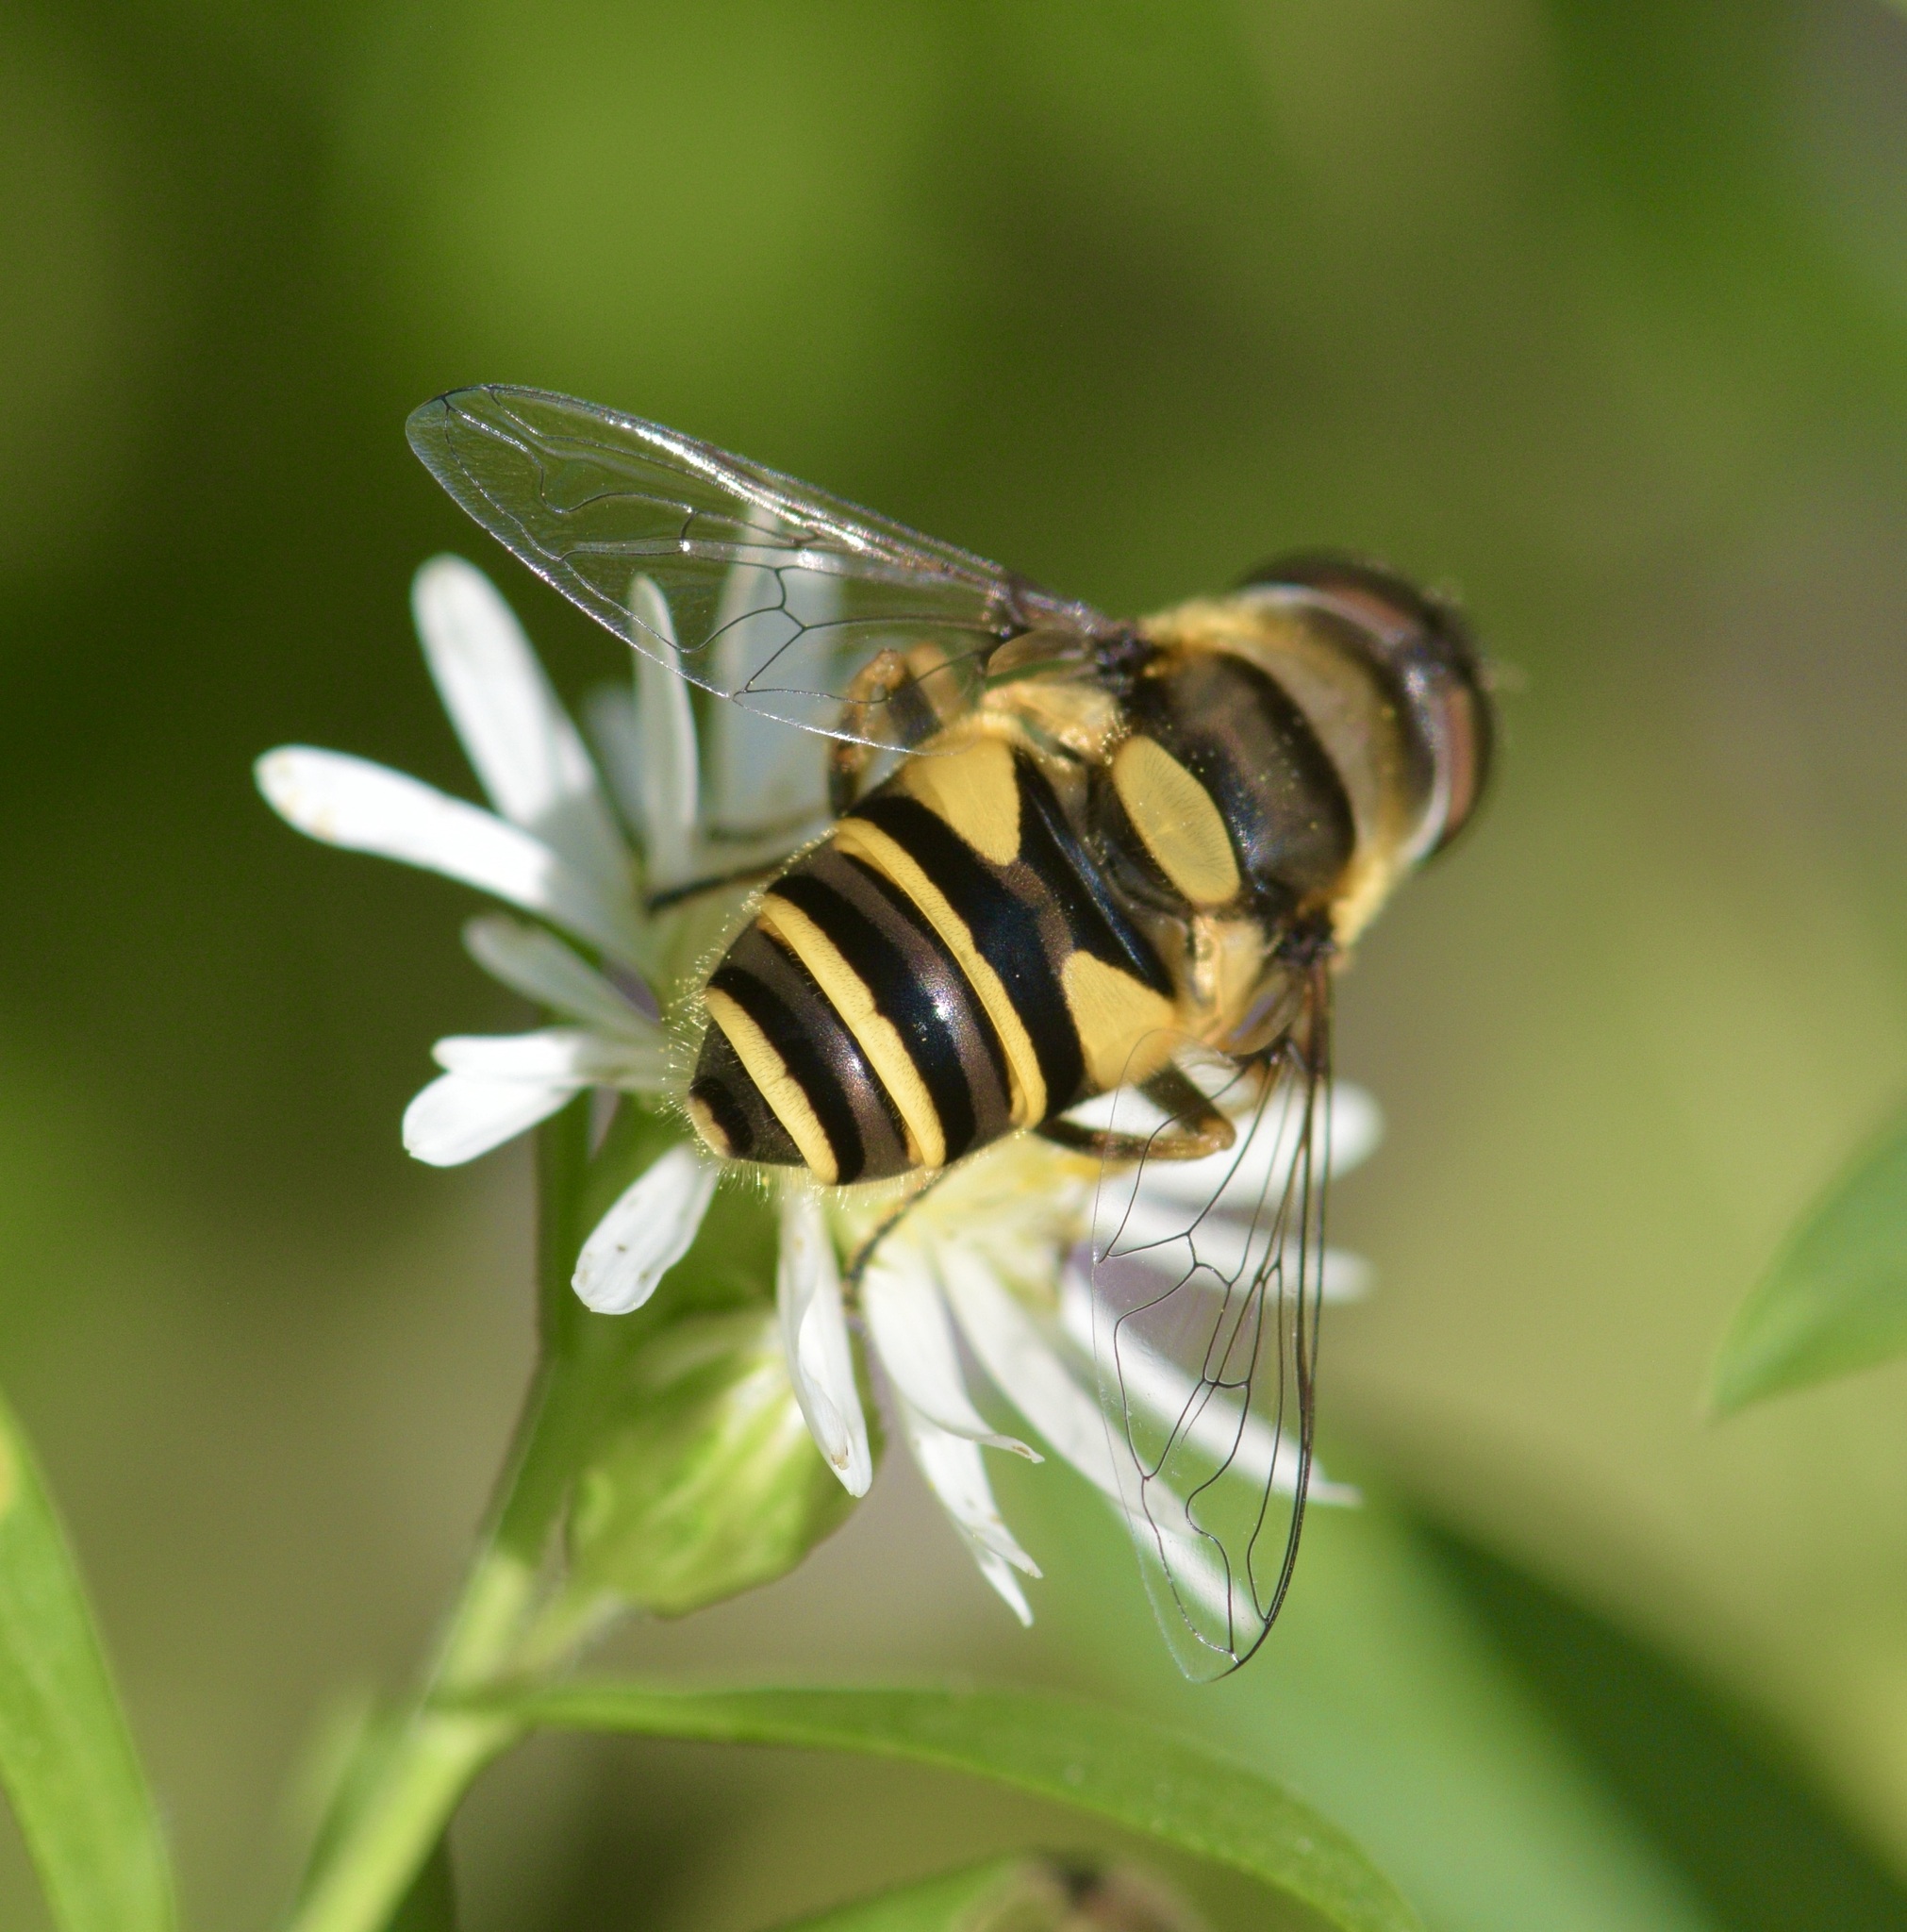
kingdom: Animalia
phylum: Arthropoda
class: Insecta
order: Diptera
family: Syrphidae
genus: Eristalis
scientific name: Eristalis transversa
